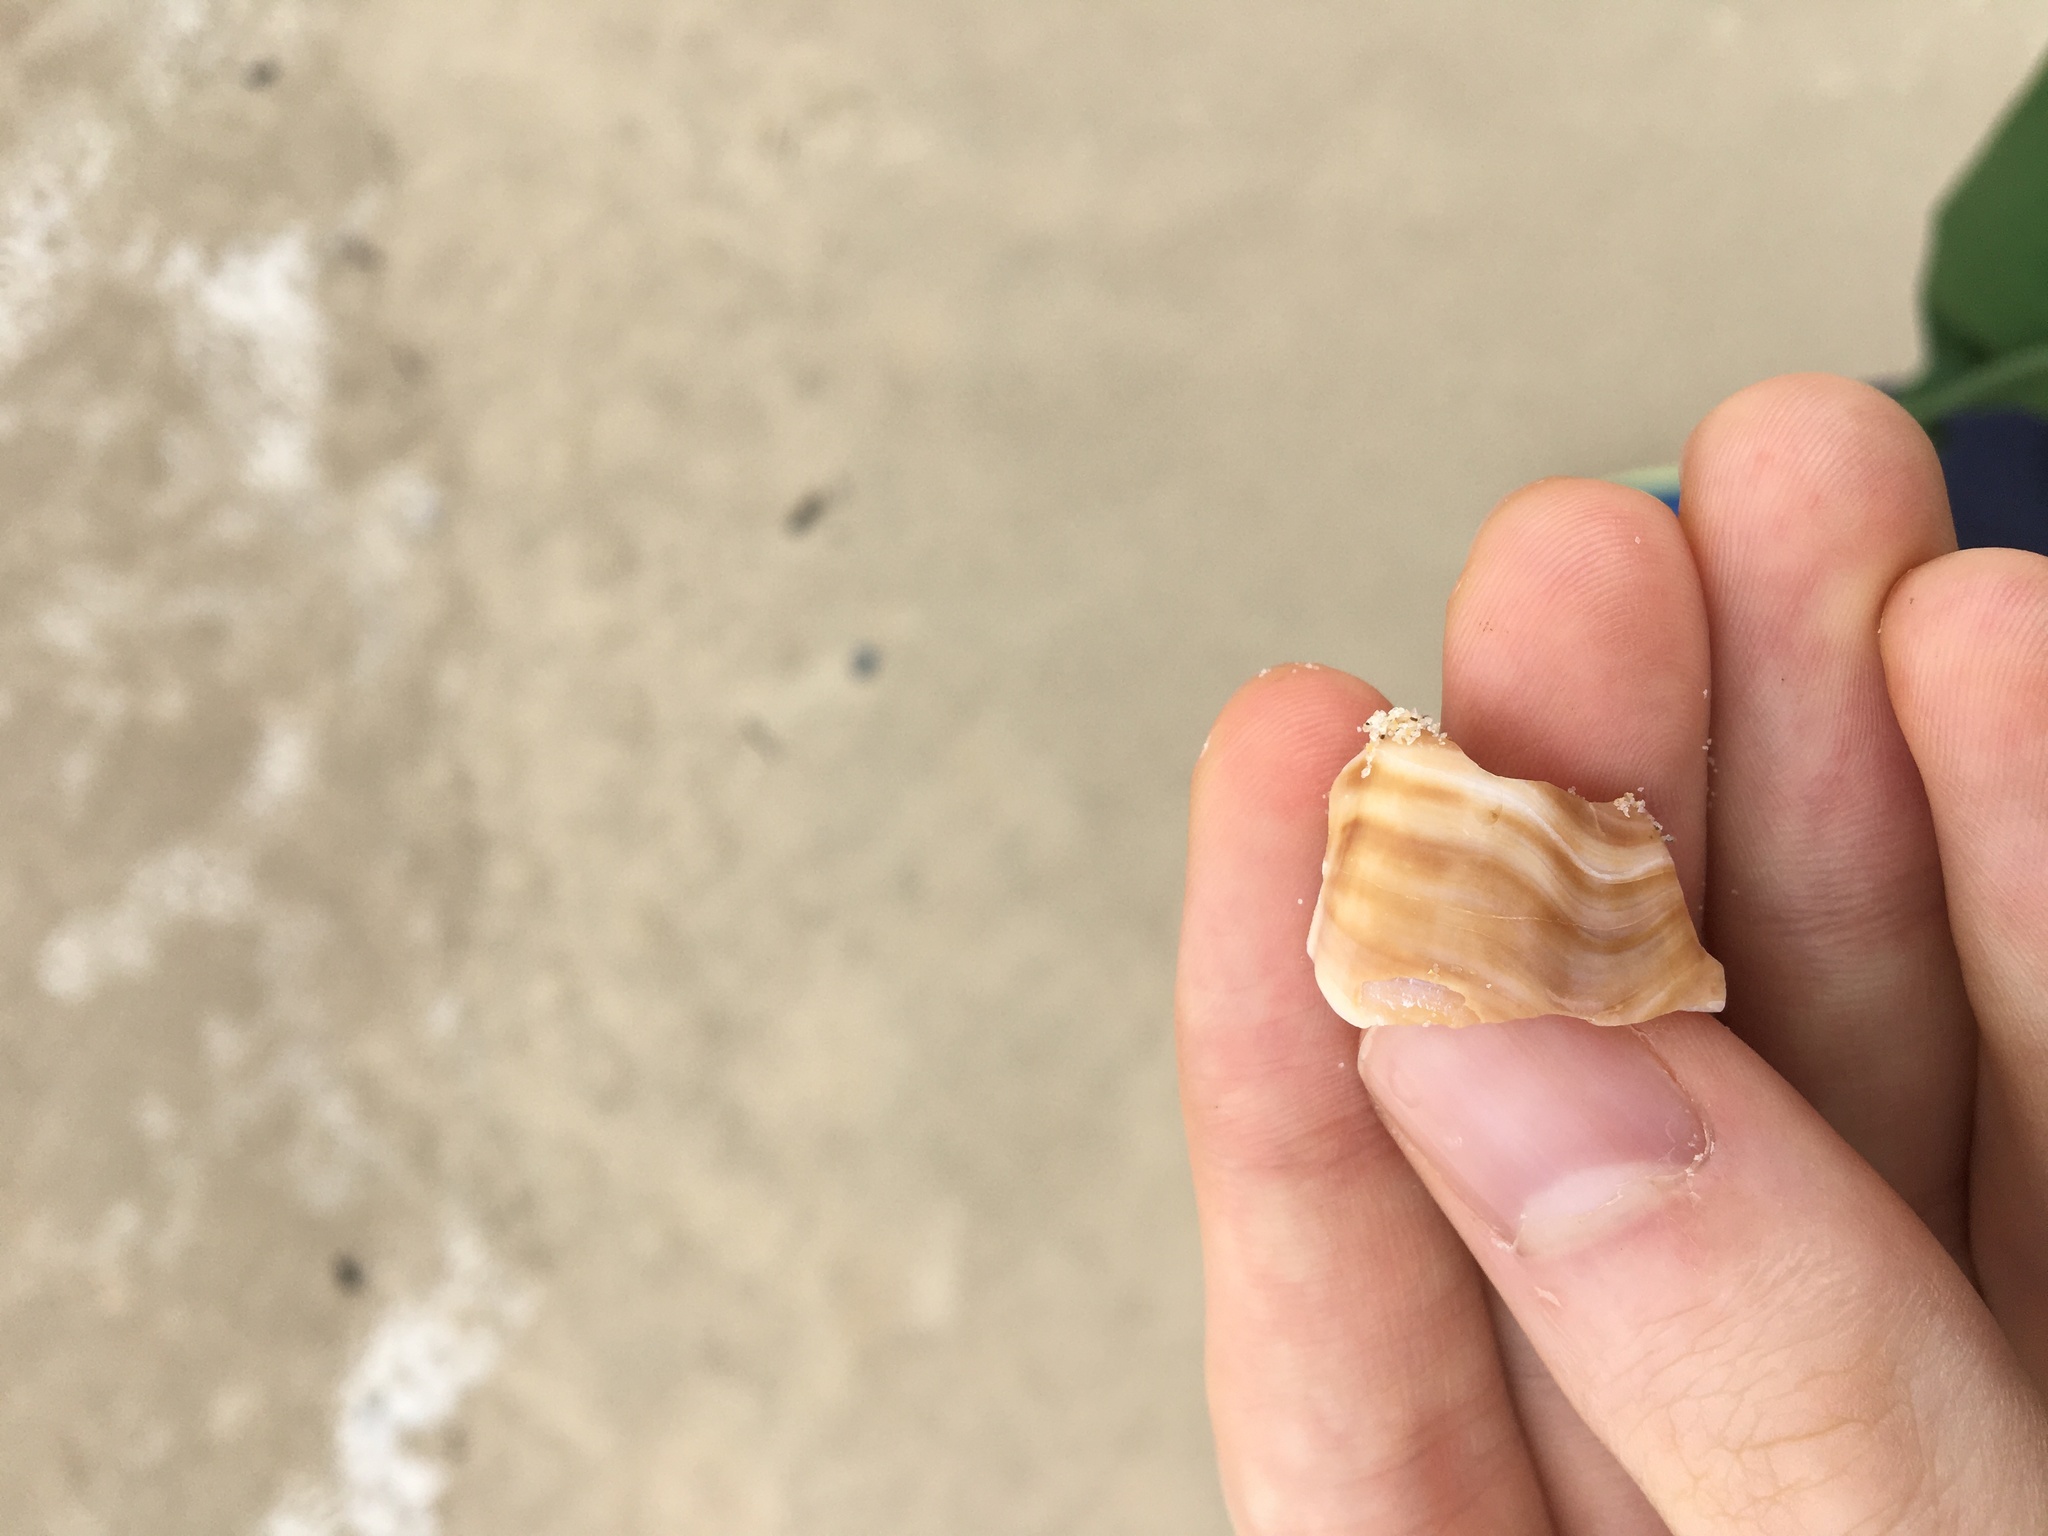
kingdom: Animalia
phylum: Mollusca
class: Gastropoda
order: Littorinimorpha
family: Struthiolariidae
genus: Tylospira
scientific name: Tylospira scutulata
